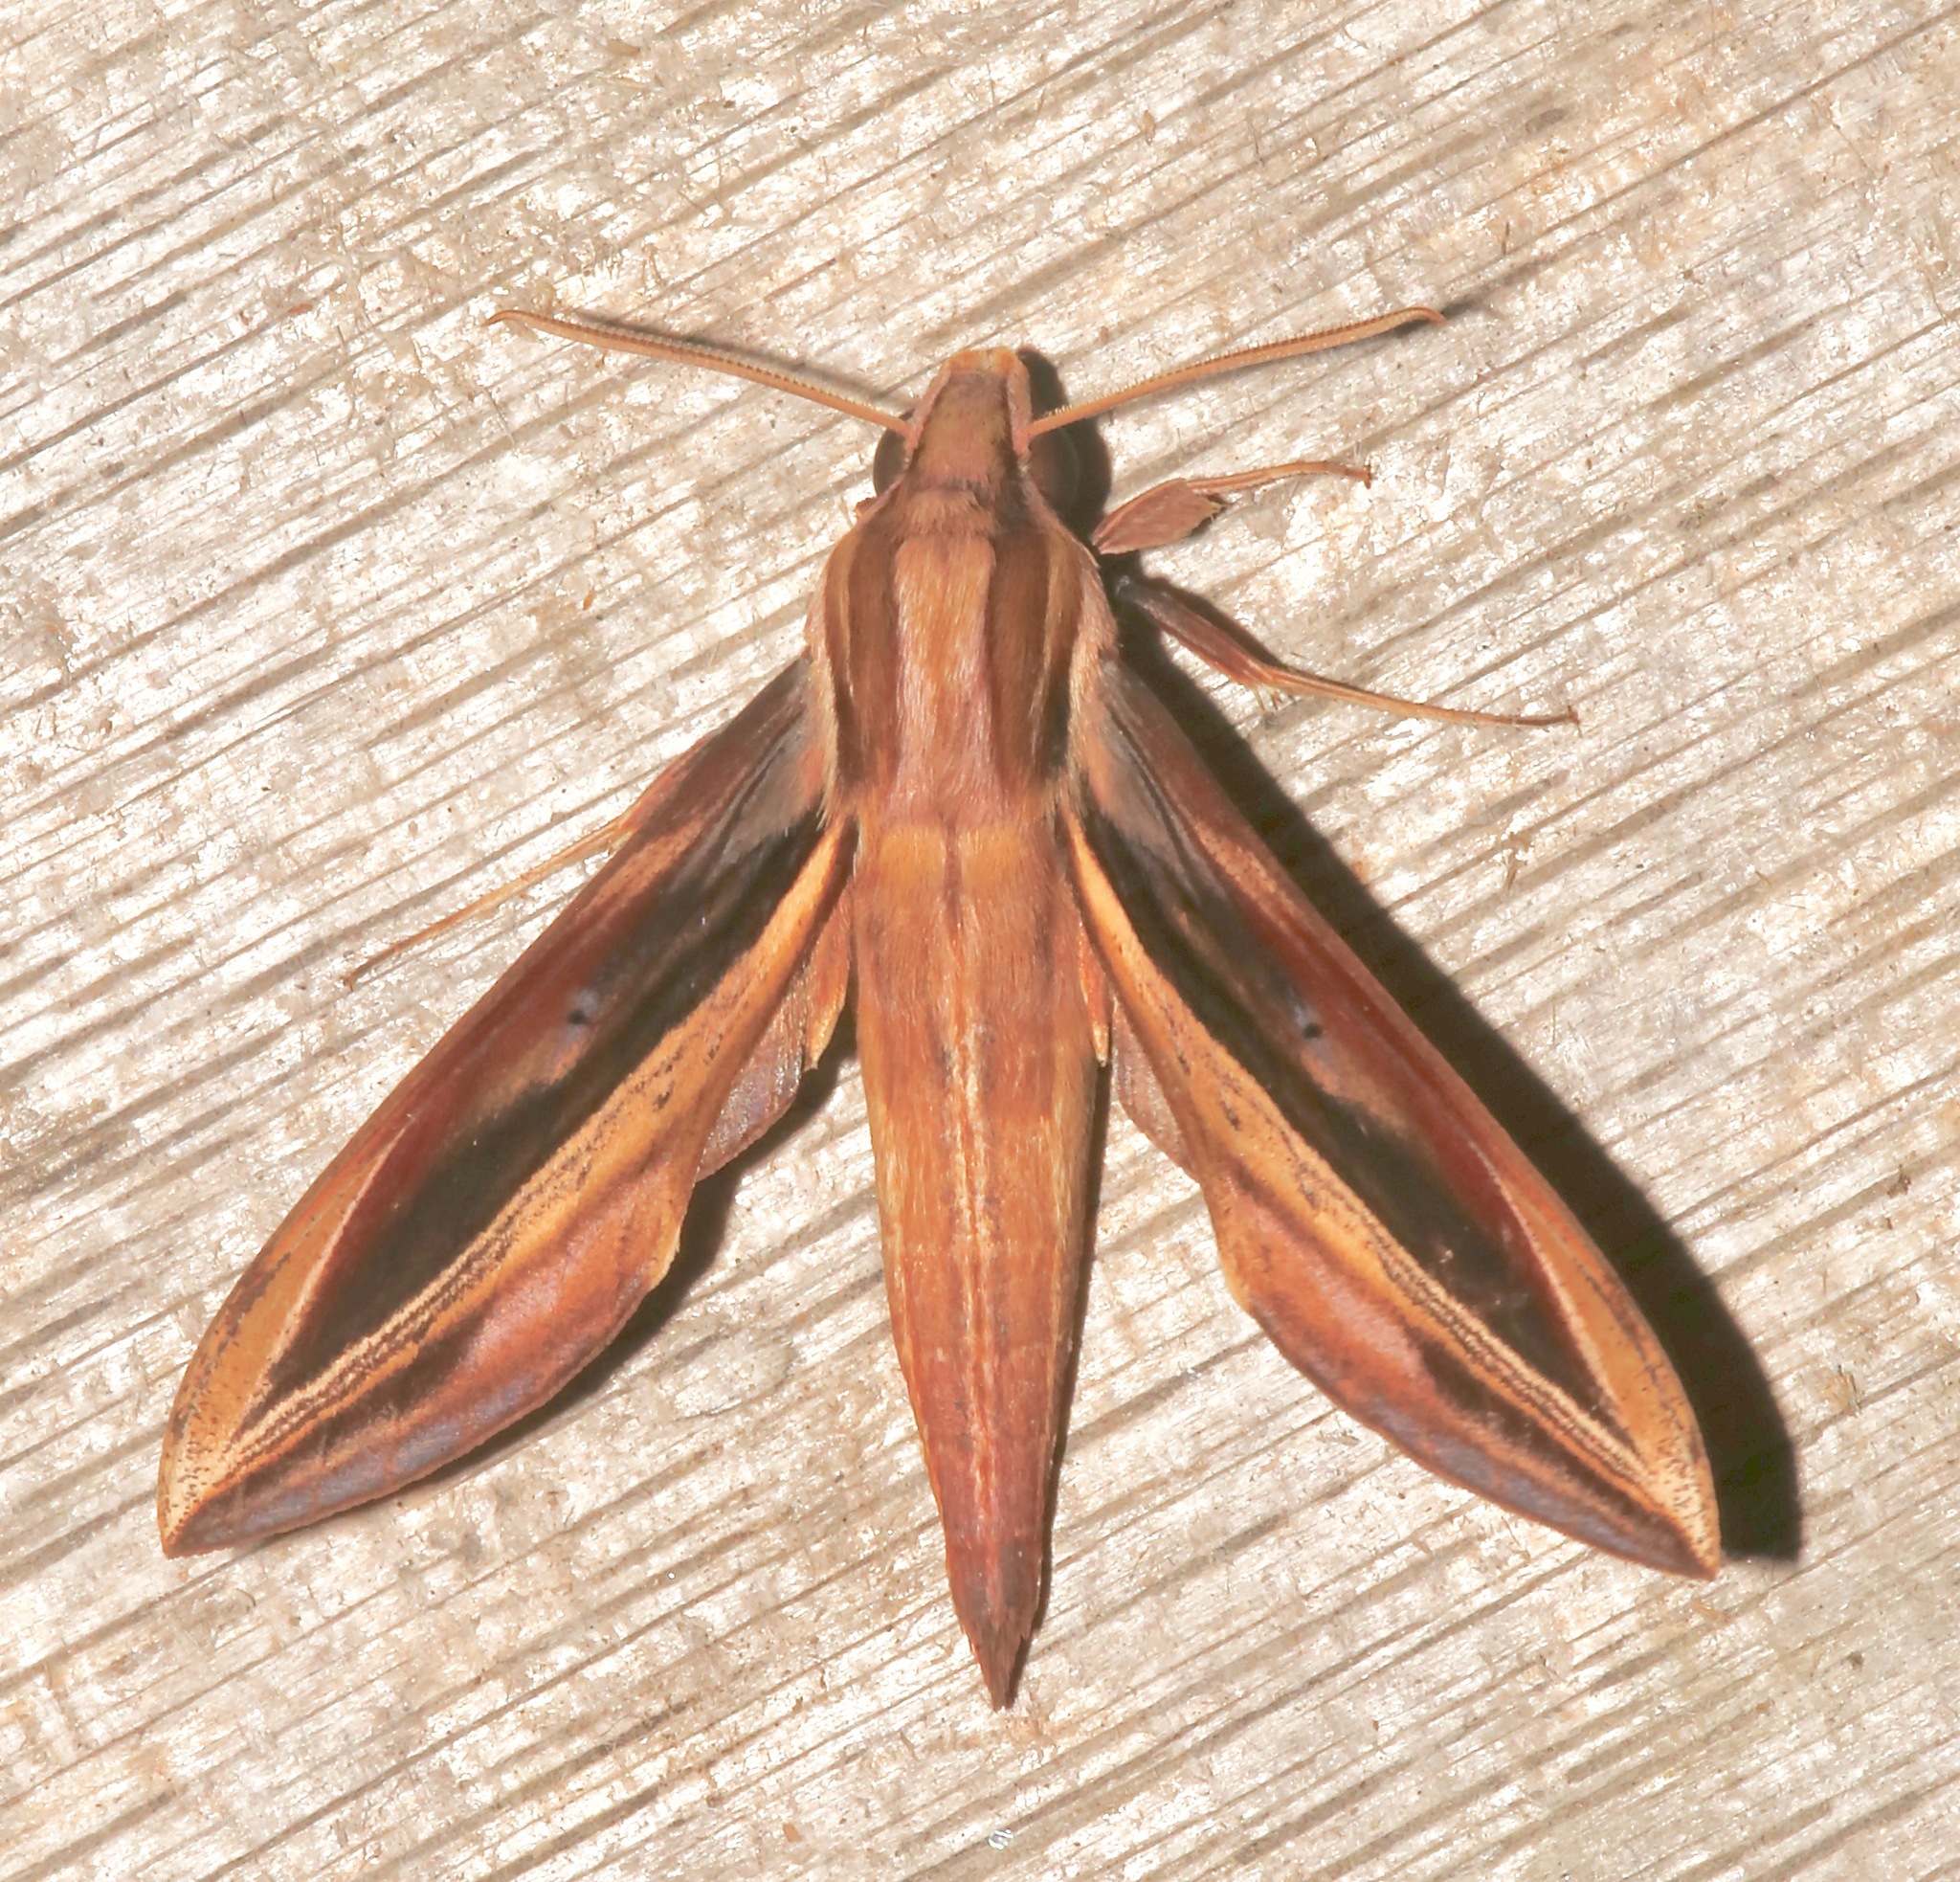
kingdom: Animalia
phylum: Arthropoda
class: Insecta
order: Lepidoptera
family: Sphingidae
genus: Xylophanes
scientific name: Xylophanes pyrrhus
